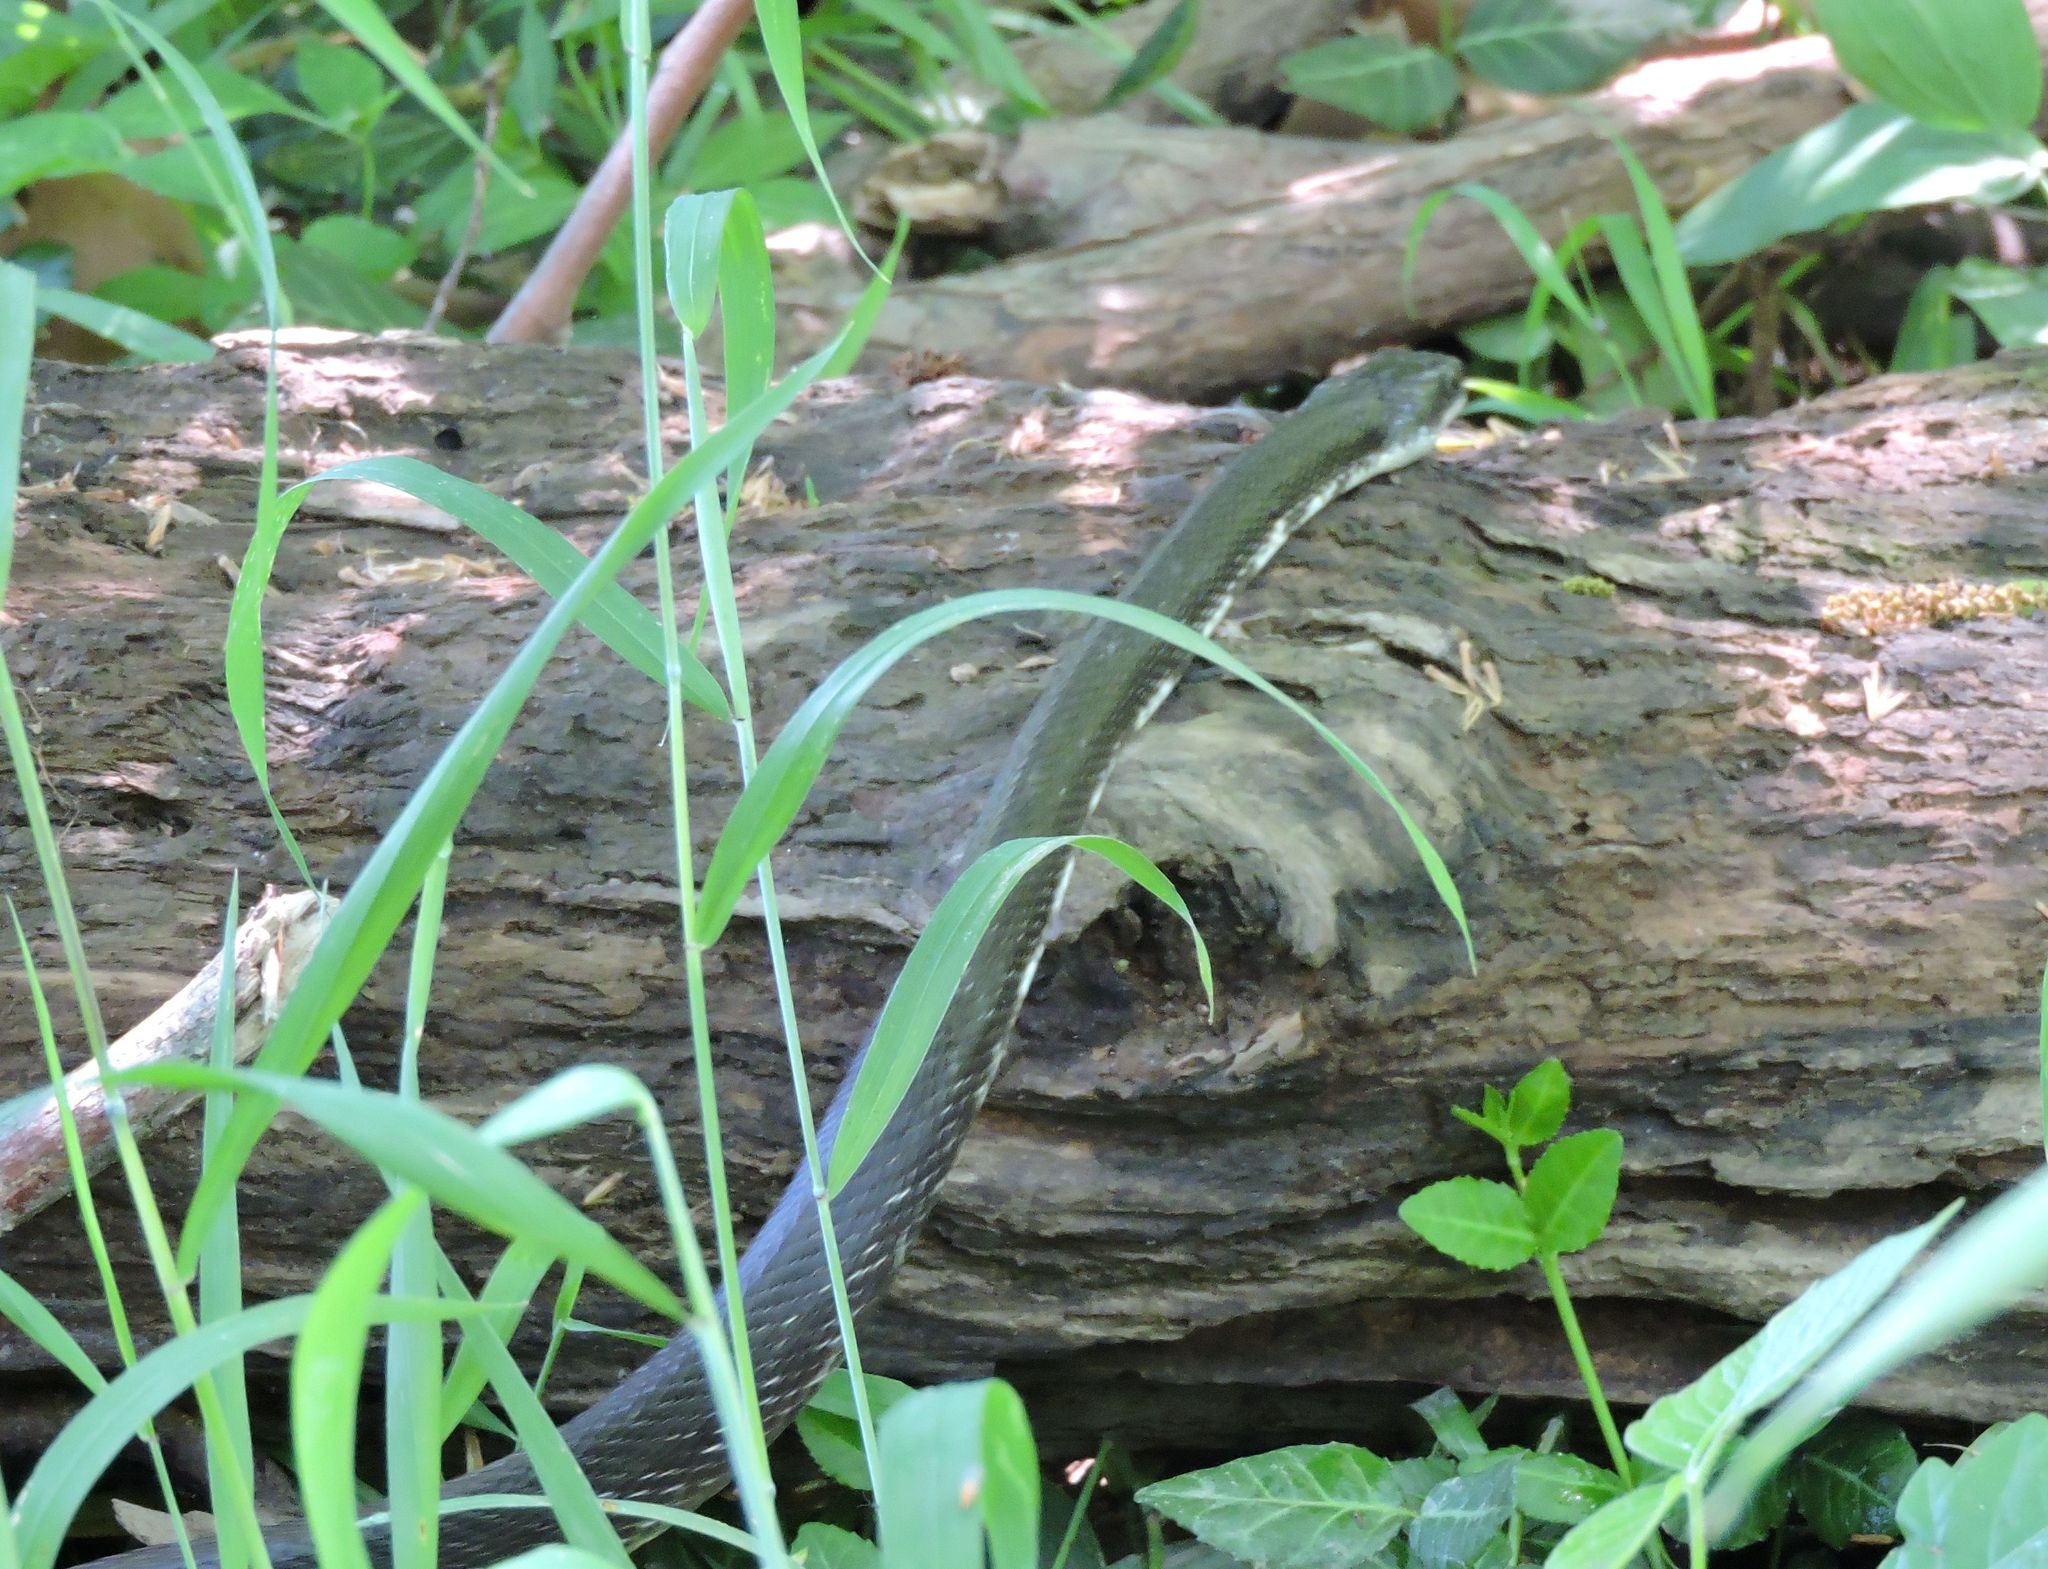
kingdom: Animalia
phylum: Chordata
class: Squamata
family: Colubridae
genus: Pantherophis
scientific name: Pantherophis alleghaniensis
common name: Eastern rat snake
